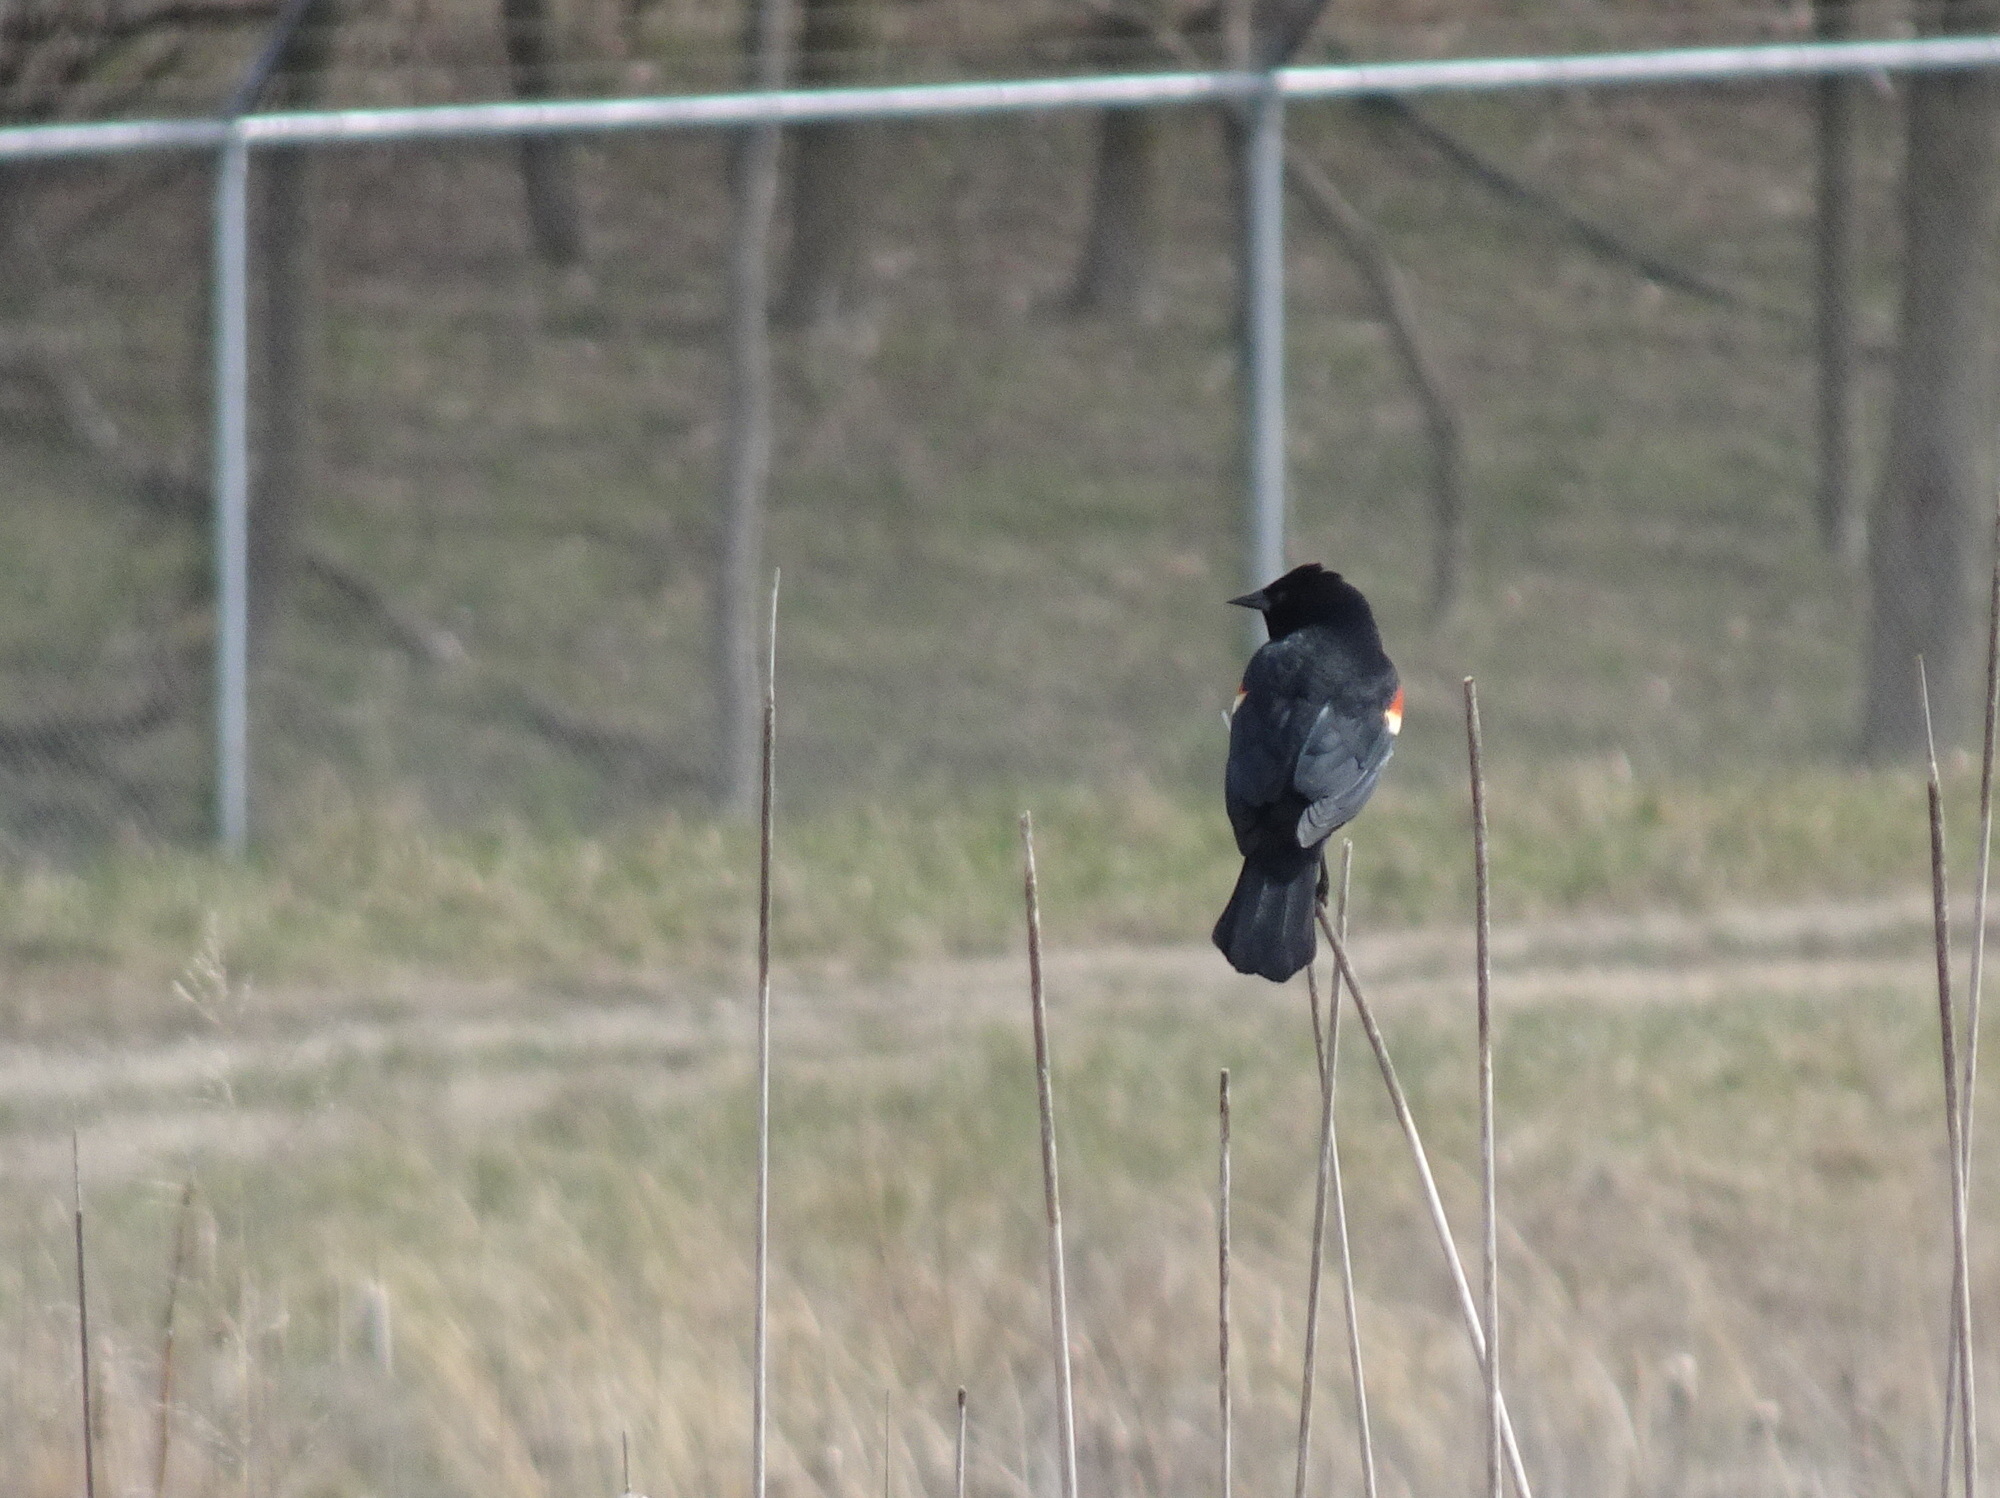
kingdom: Animalia
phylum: Chordata
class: Aves
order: Passeriformes
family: Icteridae
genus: Agelaius
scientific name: Agelaius phoeniceus
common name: Red-winged blackbird
